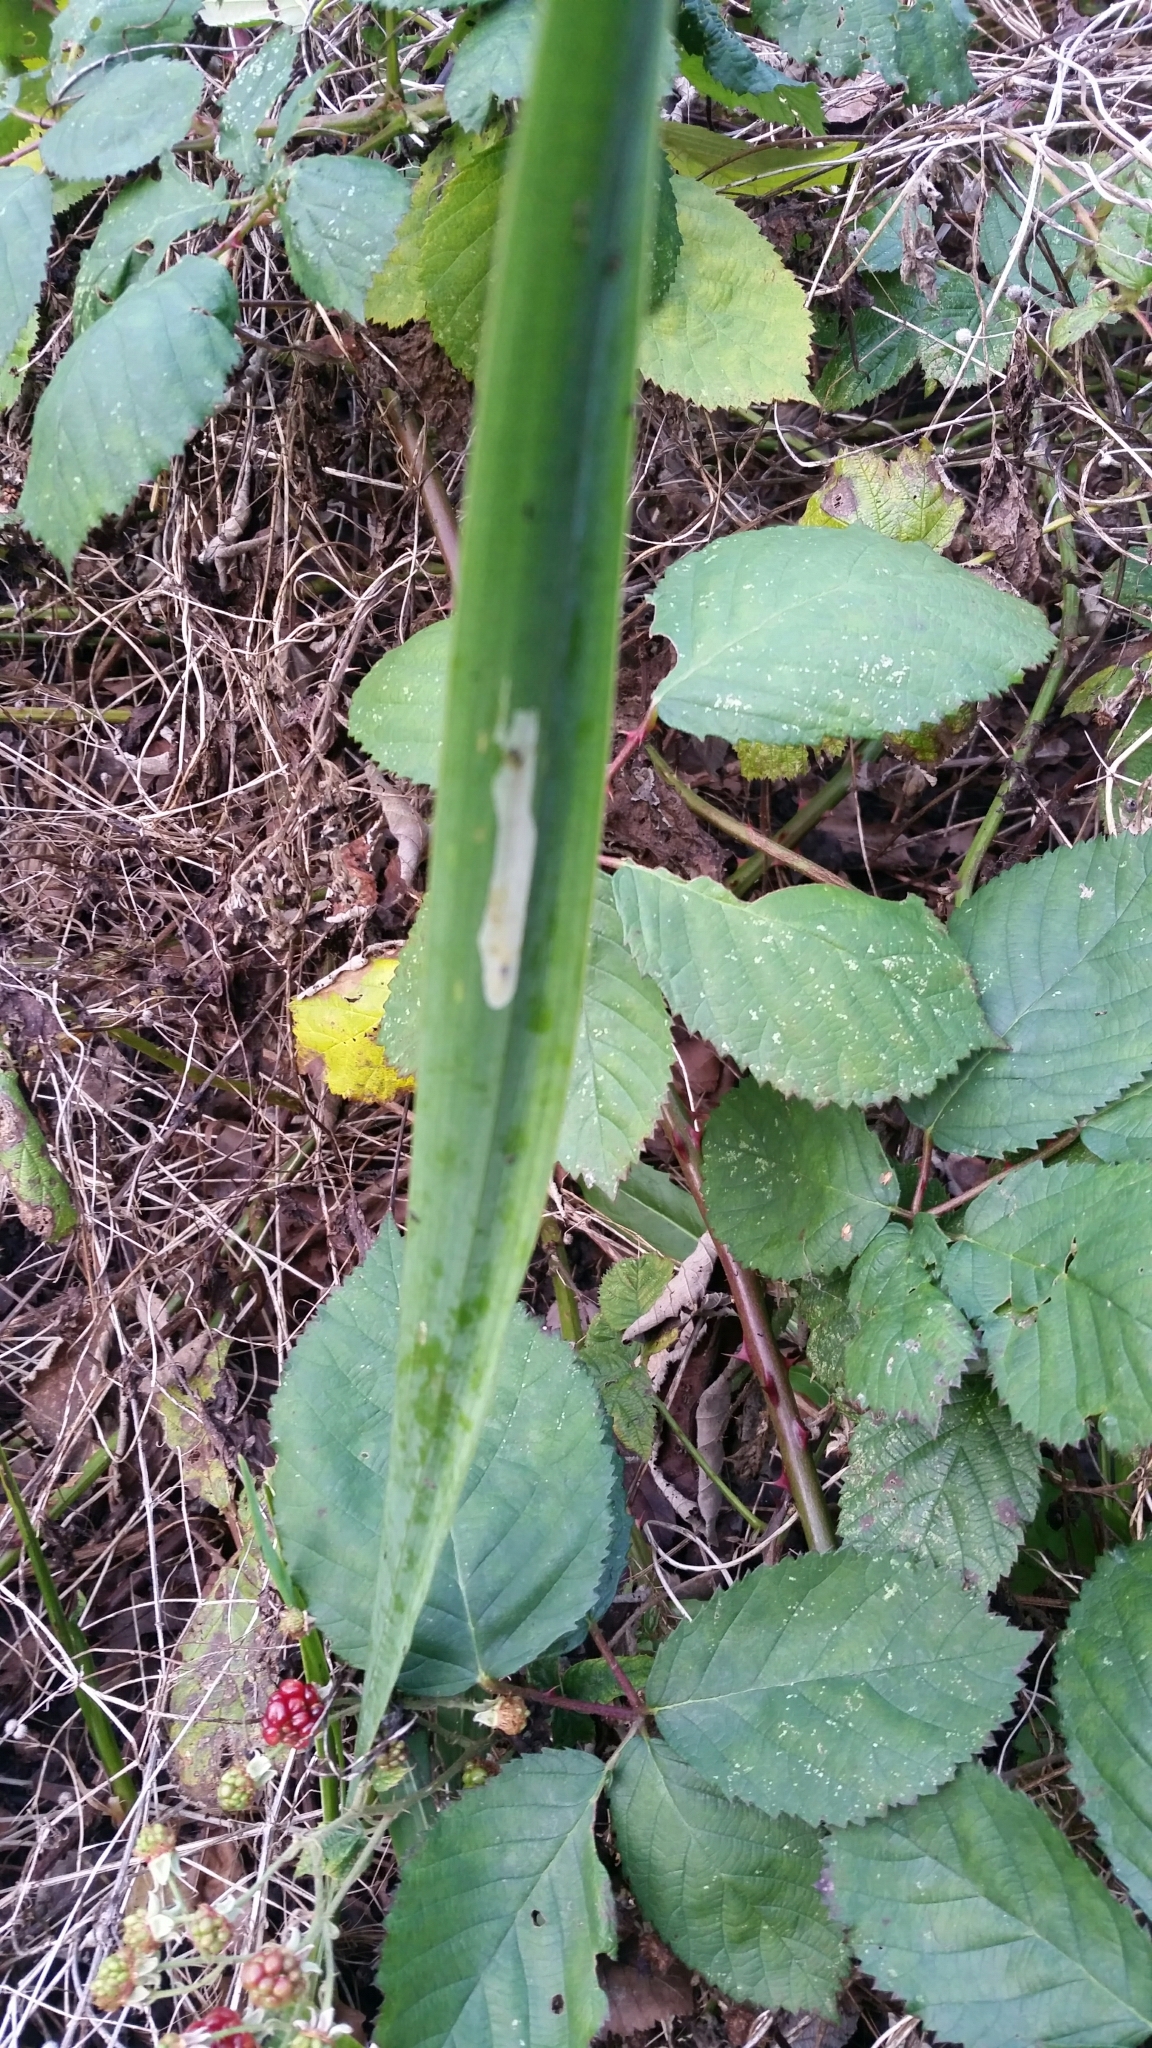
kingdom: Animalia
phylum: Arthropoda
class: Insecta
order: Diptera
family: Agromyzidae
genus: Cerodontha
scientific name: Cerodontha ircos
